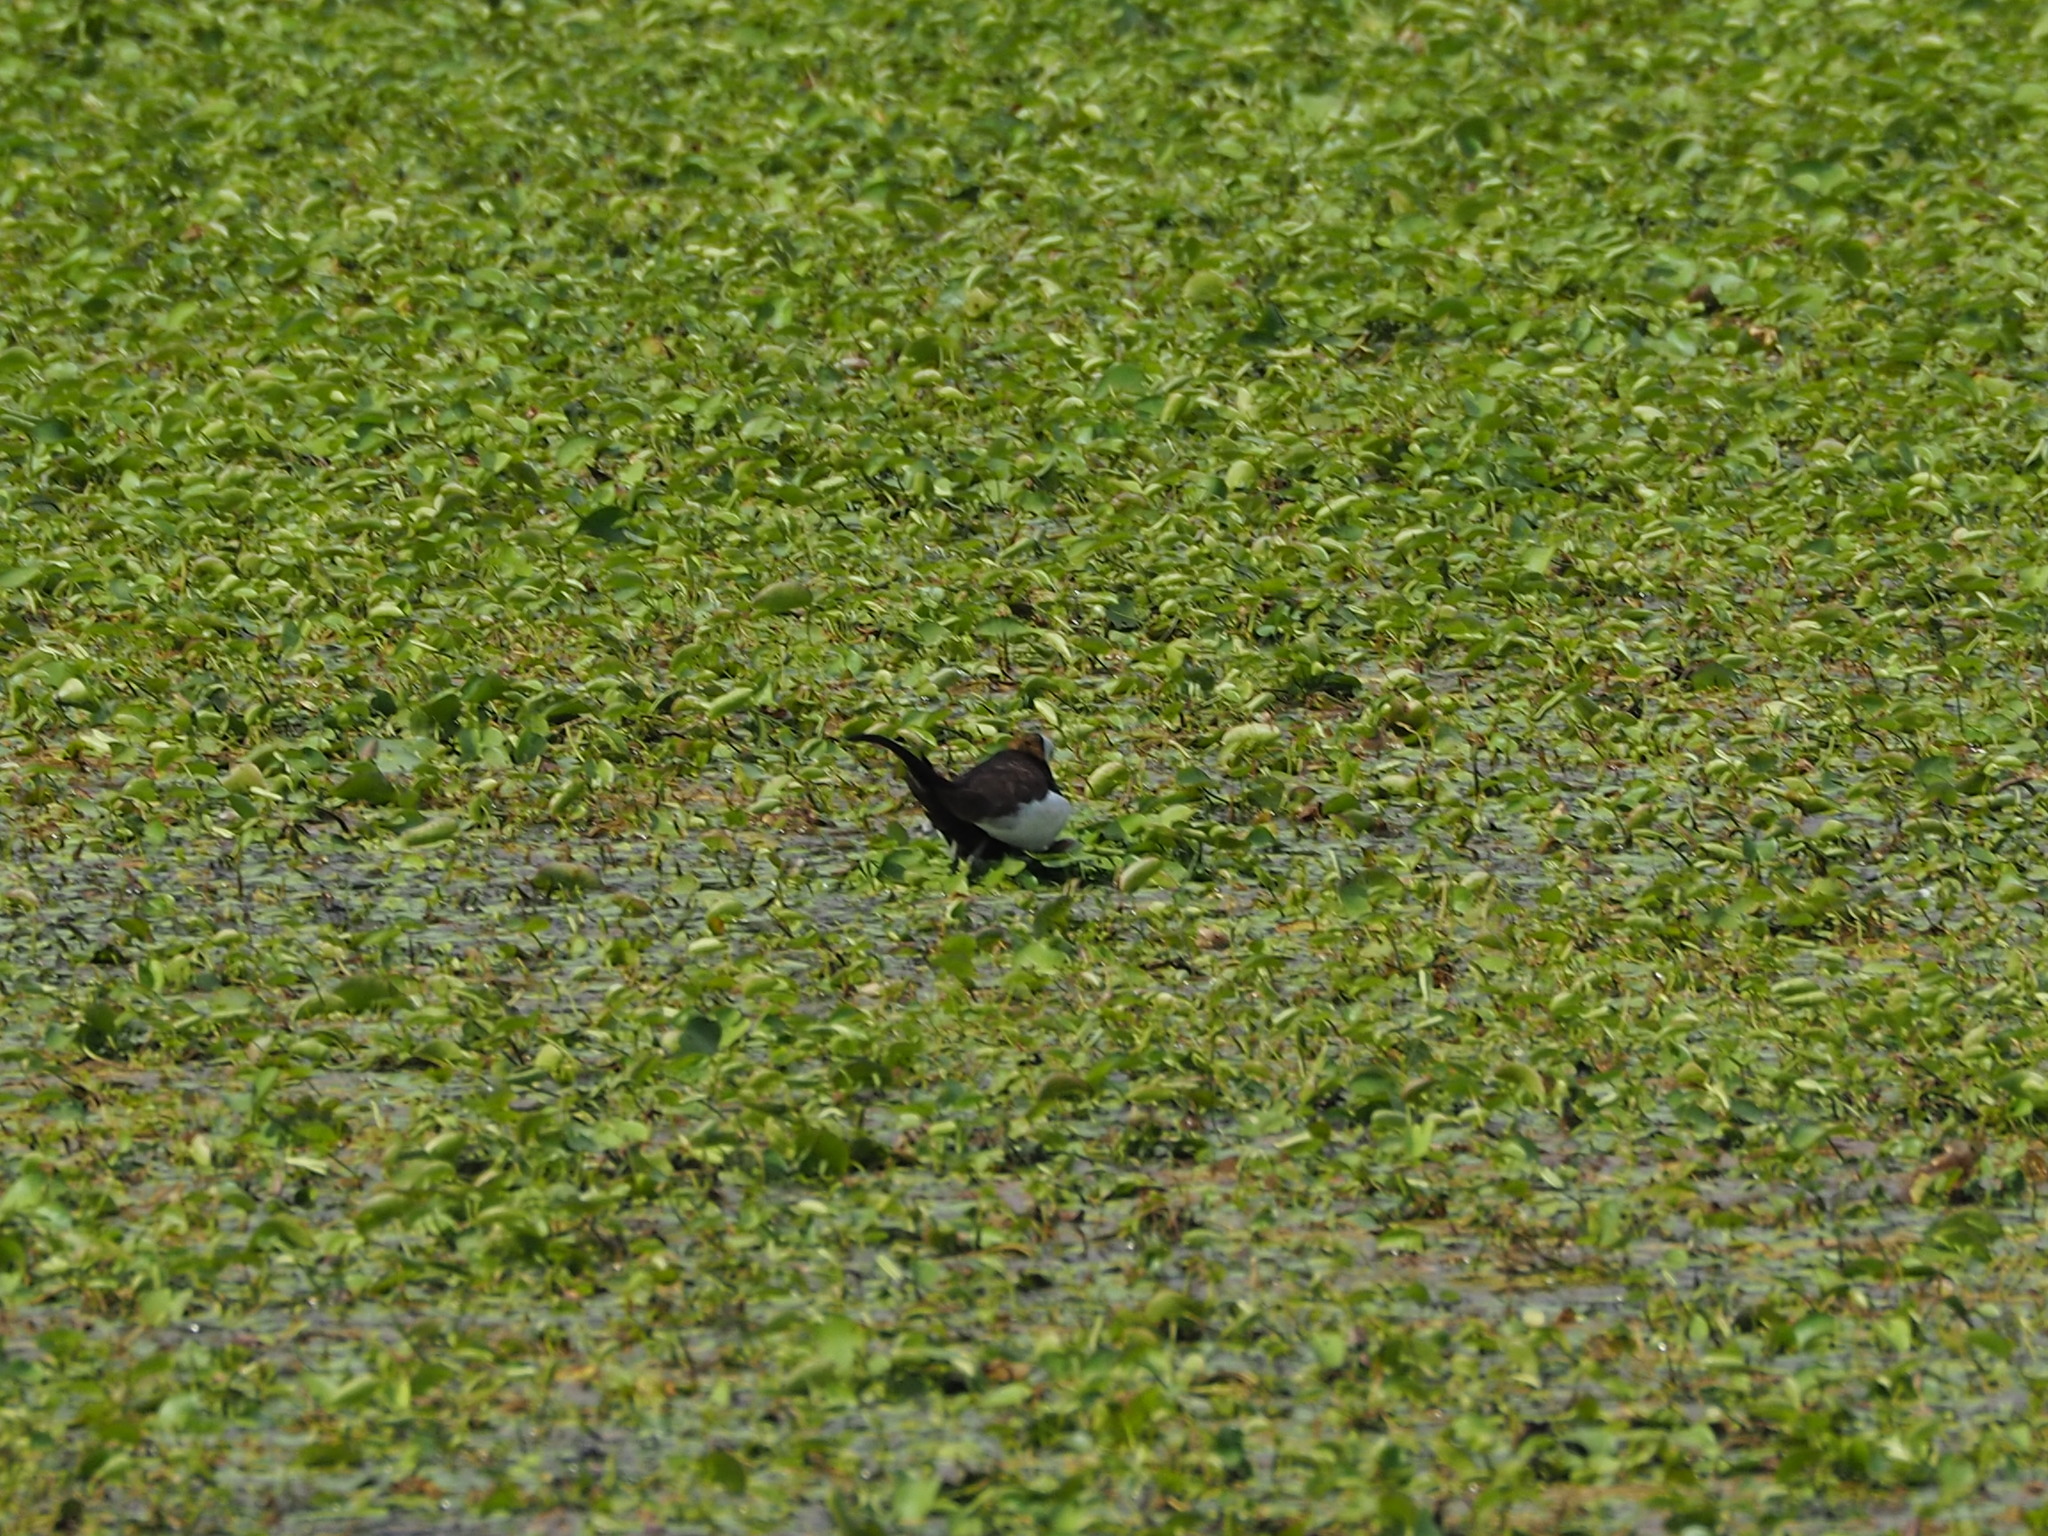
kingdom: Animalia
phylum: Chordata
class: Aves
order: Charadriiformes
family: Jacanidae
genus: Hydrophasianus
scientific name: Hydrophasianus chirurgus
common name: Pheasant-tailed jacana
